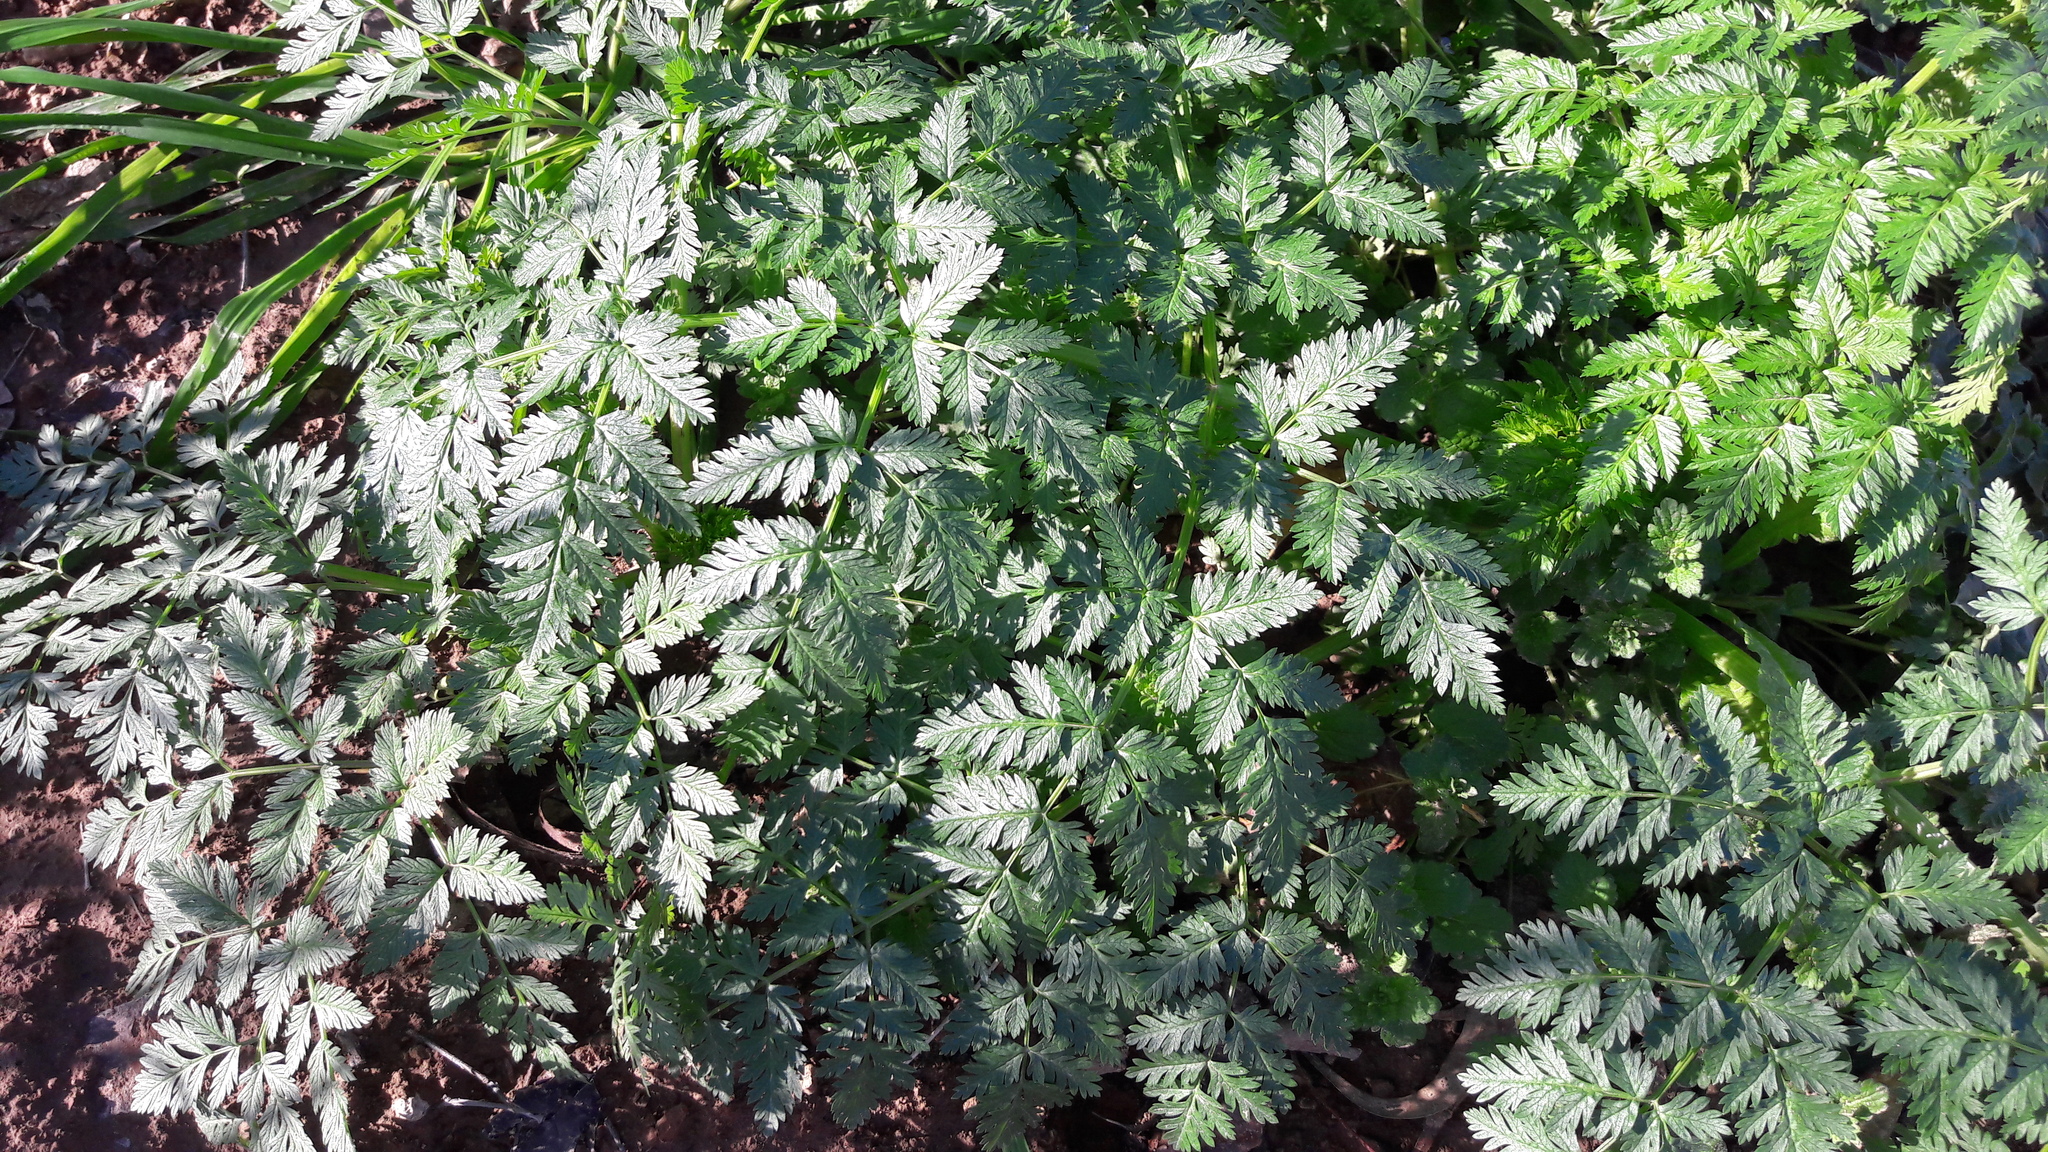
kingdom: Plantae
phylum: Tracheophyta
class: Magnoliopsida
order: Apiales
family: Apiaceae
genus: Conium
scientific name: Conium maculatum
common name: Hemlock
